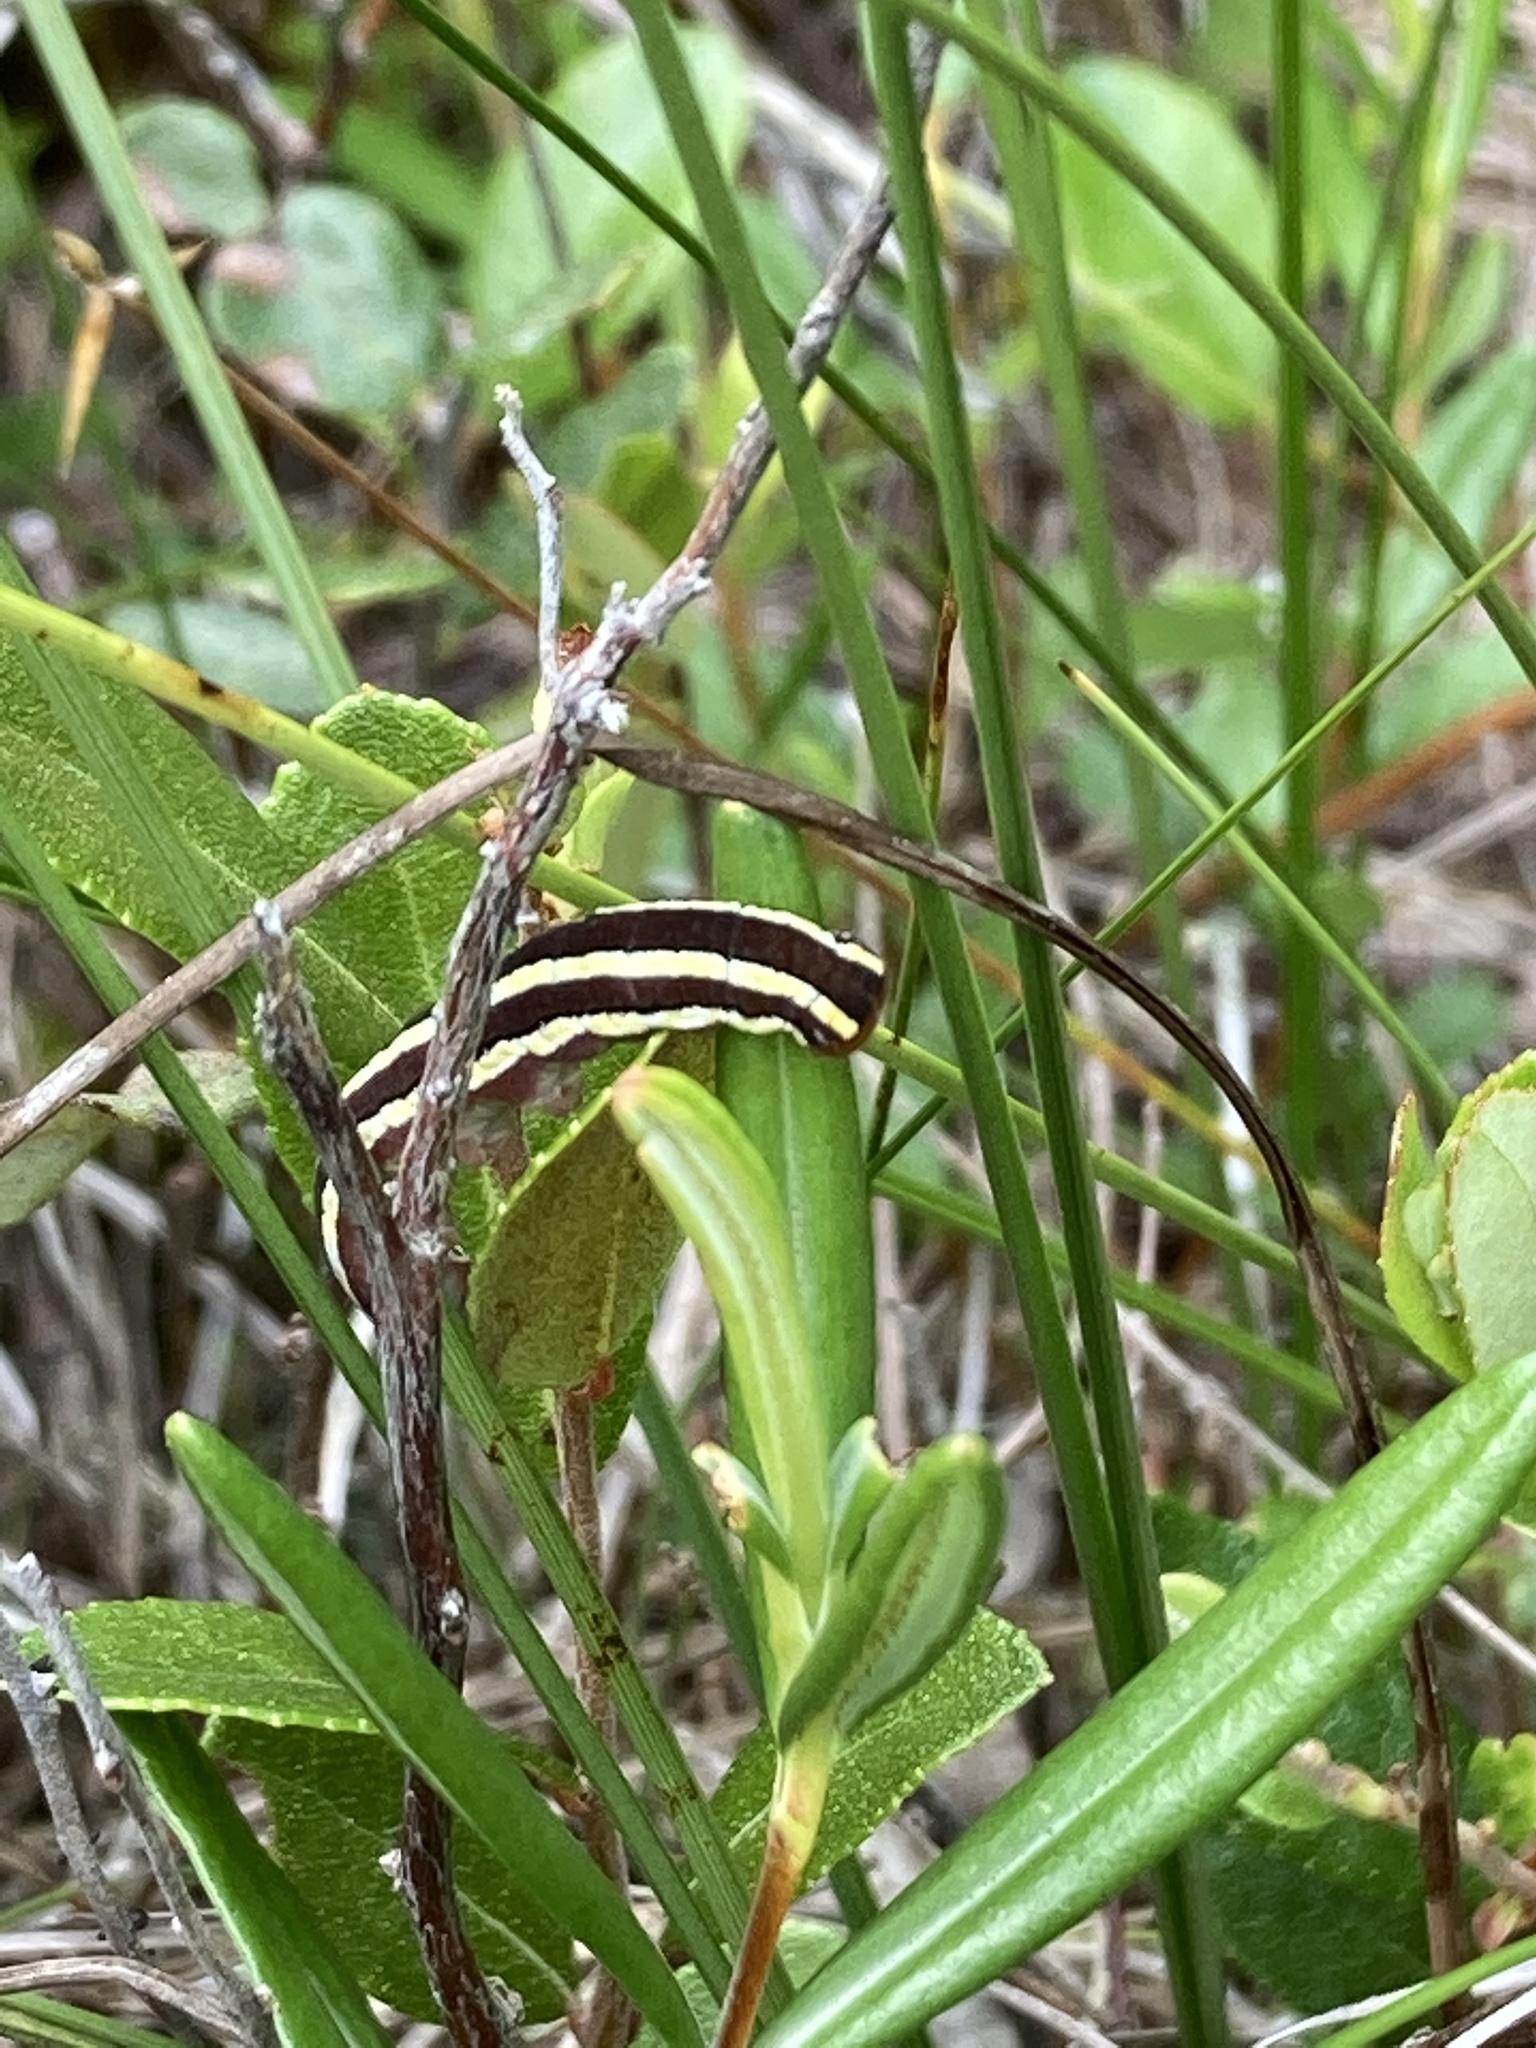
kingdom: Animalia
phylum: Arthropoda
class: Insecta
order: Lepidoptera
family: Noctuidae
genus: Trichordestra
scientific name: Trichordestra legitima
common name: Striped garden caterpillar
